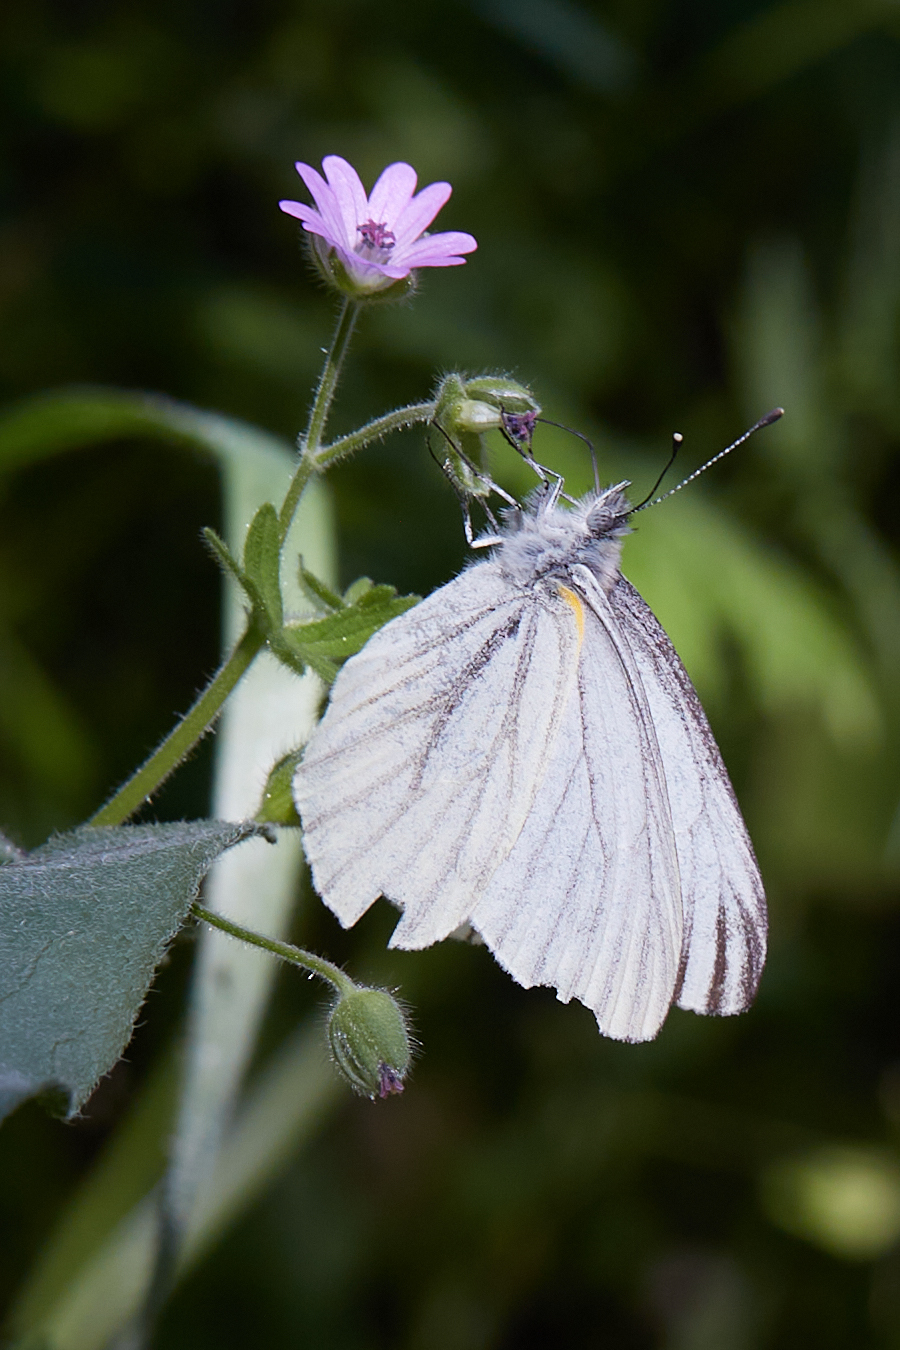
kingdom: Animalia
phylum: Arthropoda
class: Insecta
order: Lepidoptera
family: Pieridae
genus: Pieris
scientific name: Pieris marginalis
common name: Margined white
